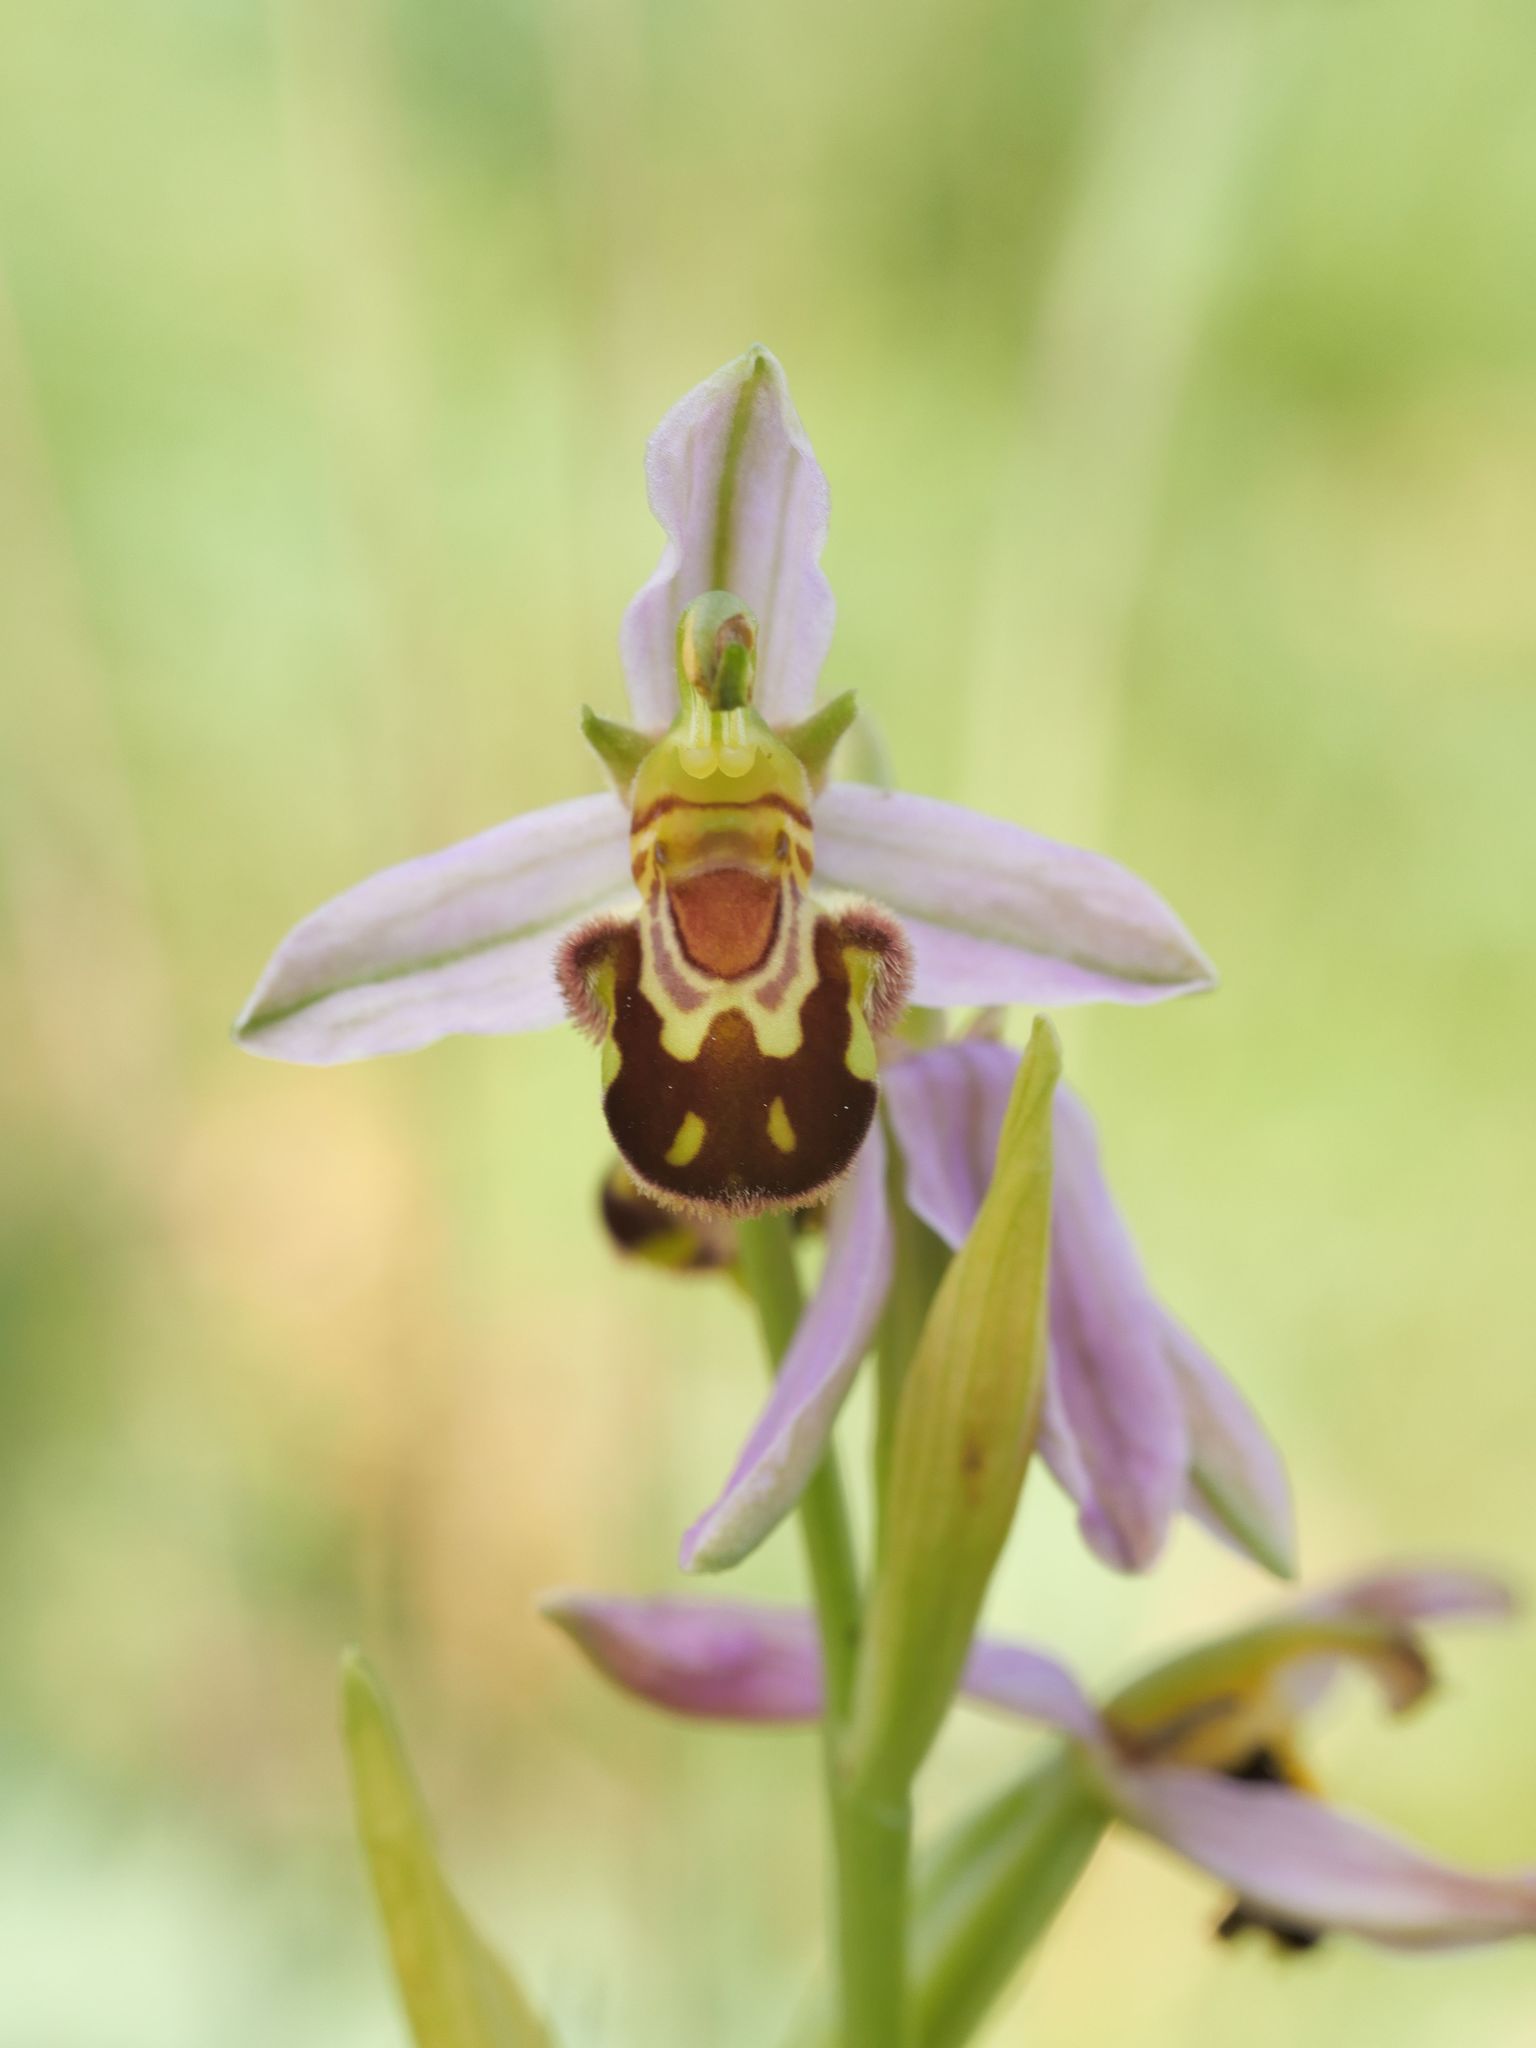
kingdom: Plantae
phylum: Tracheophyta
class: Liliopsida
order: Asparagales
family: Orchidaceae
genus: Ophrys
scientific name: Ophrys apifera
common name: Bee orchid
